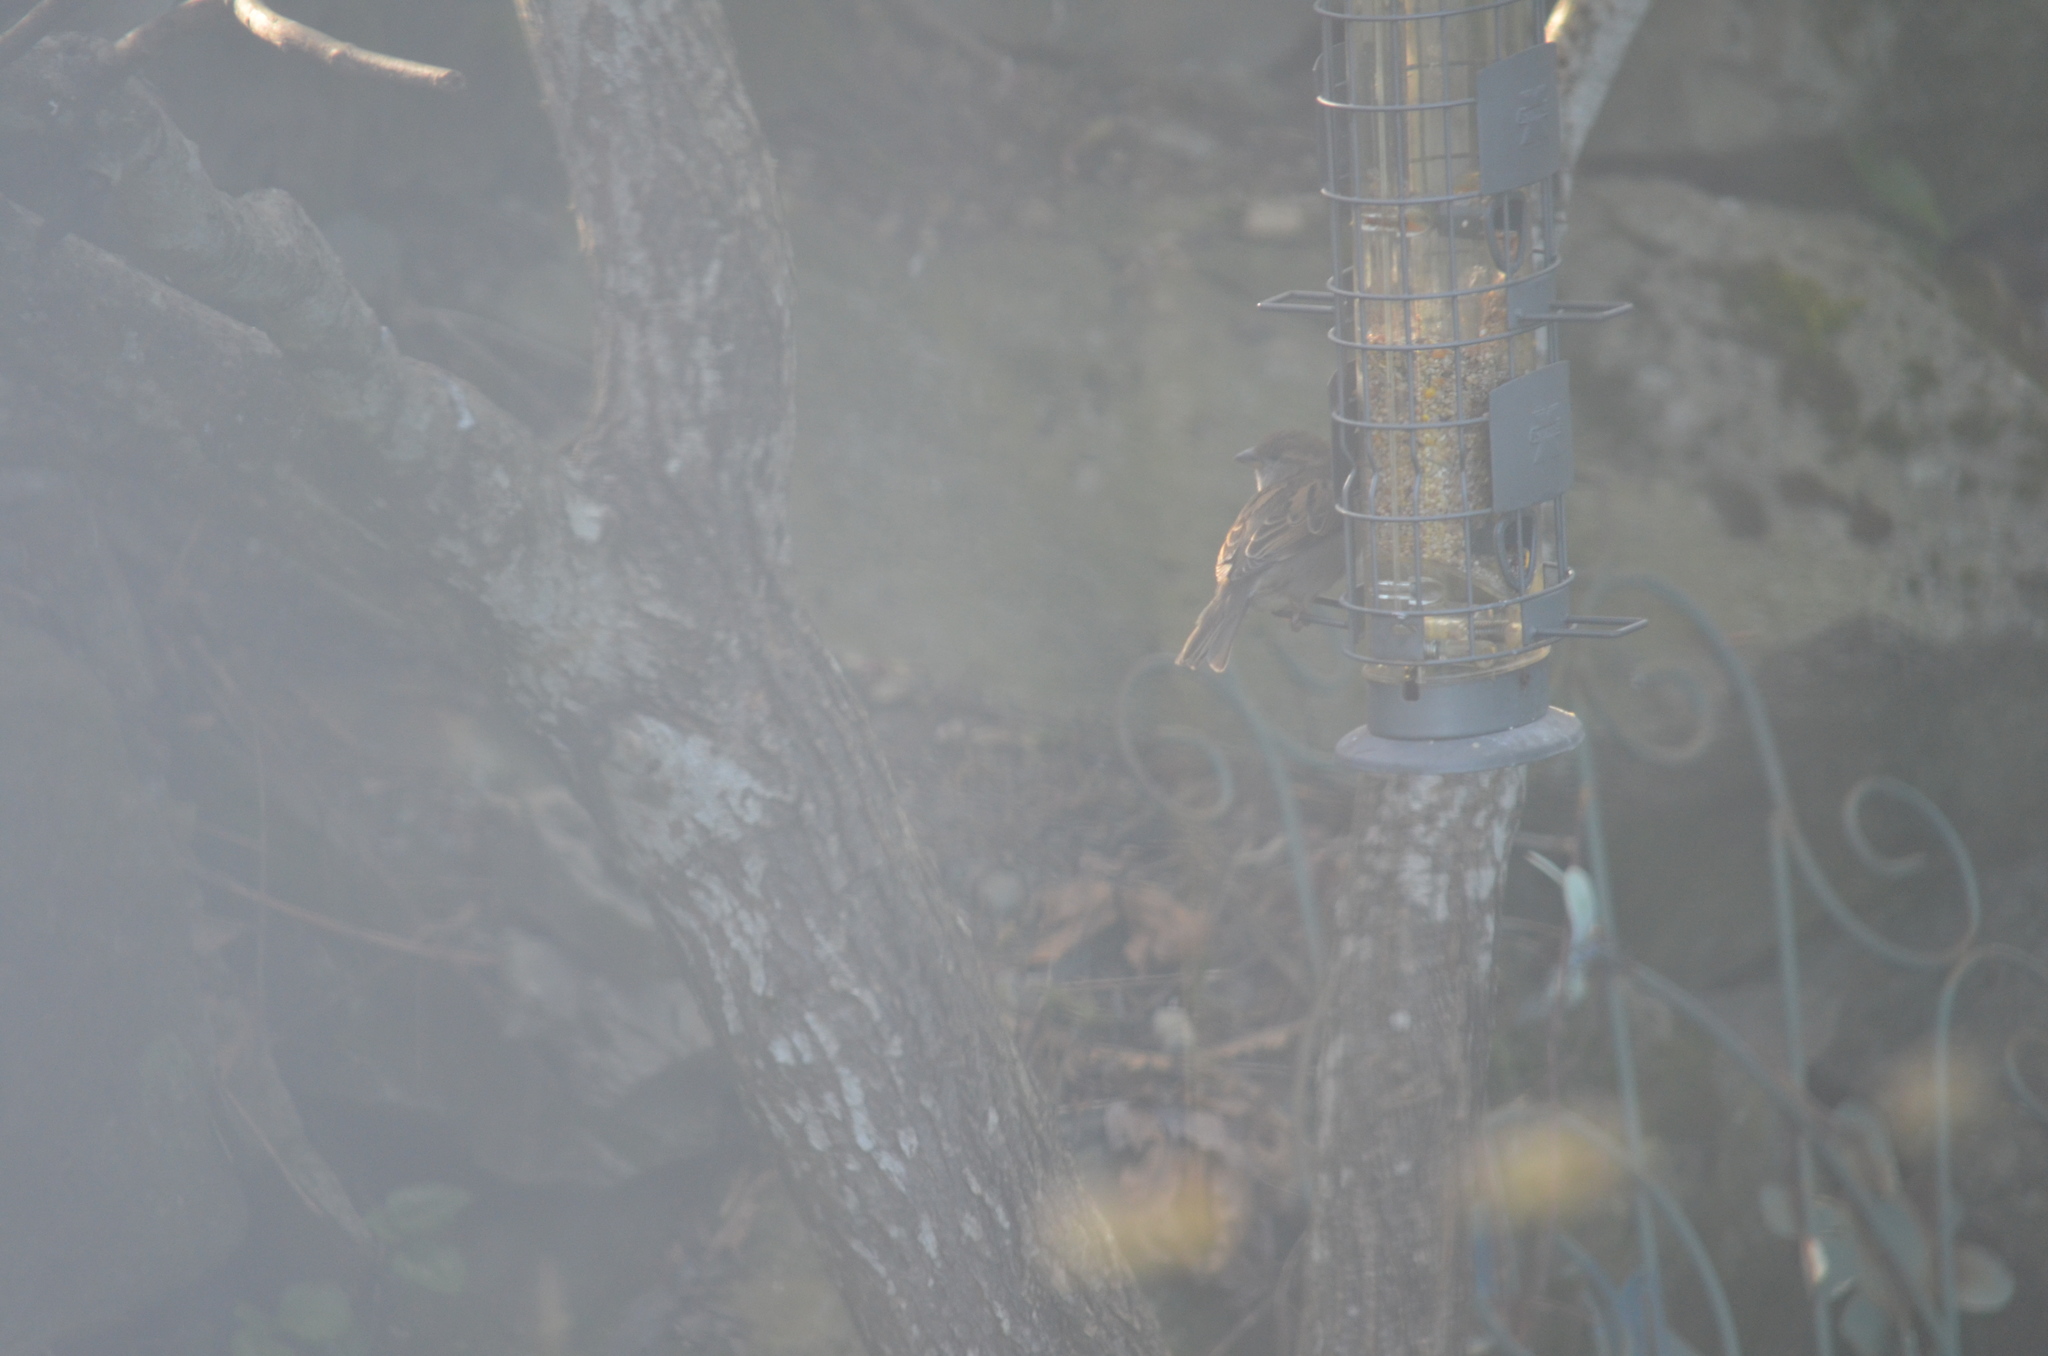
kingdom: Animalia
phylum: Chordata
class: Aves
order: Passeriformes
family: Passeridae
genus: Passer
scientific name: Passer domesticus
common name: House sparrow
